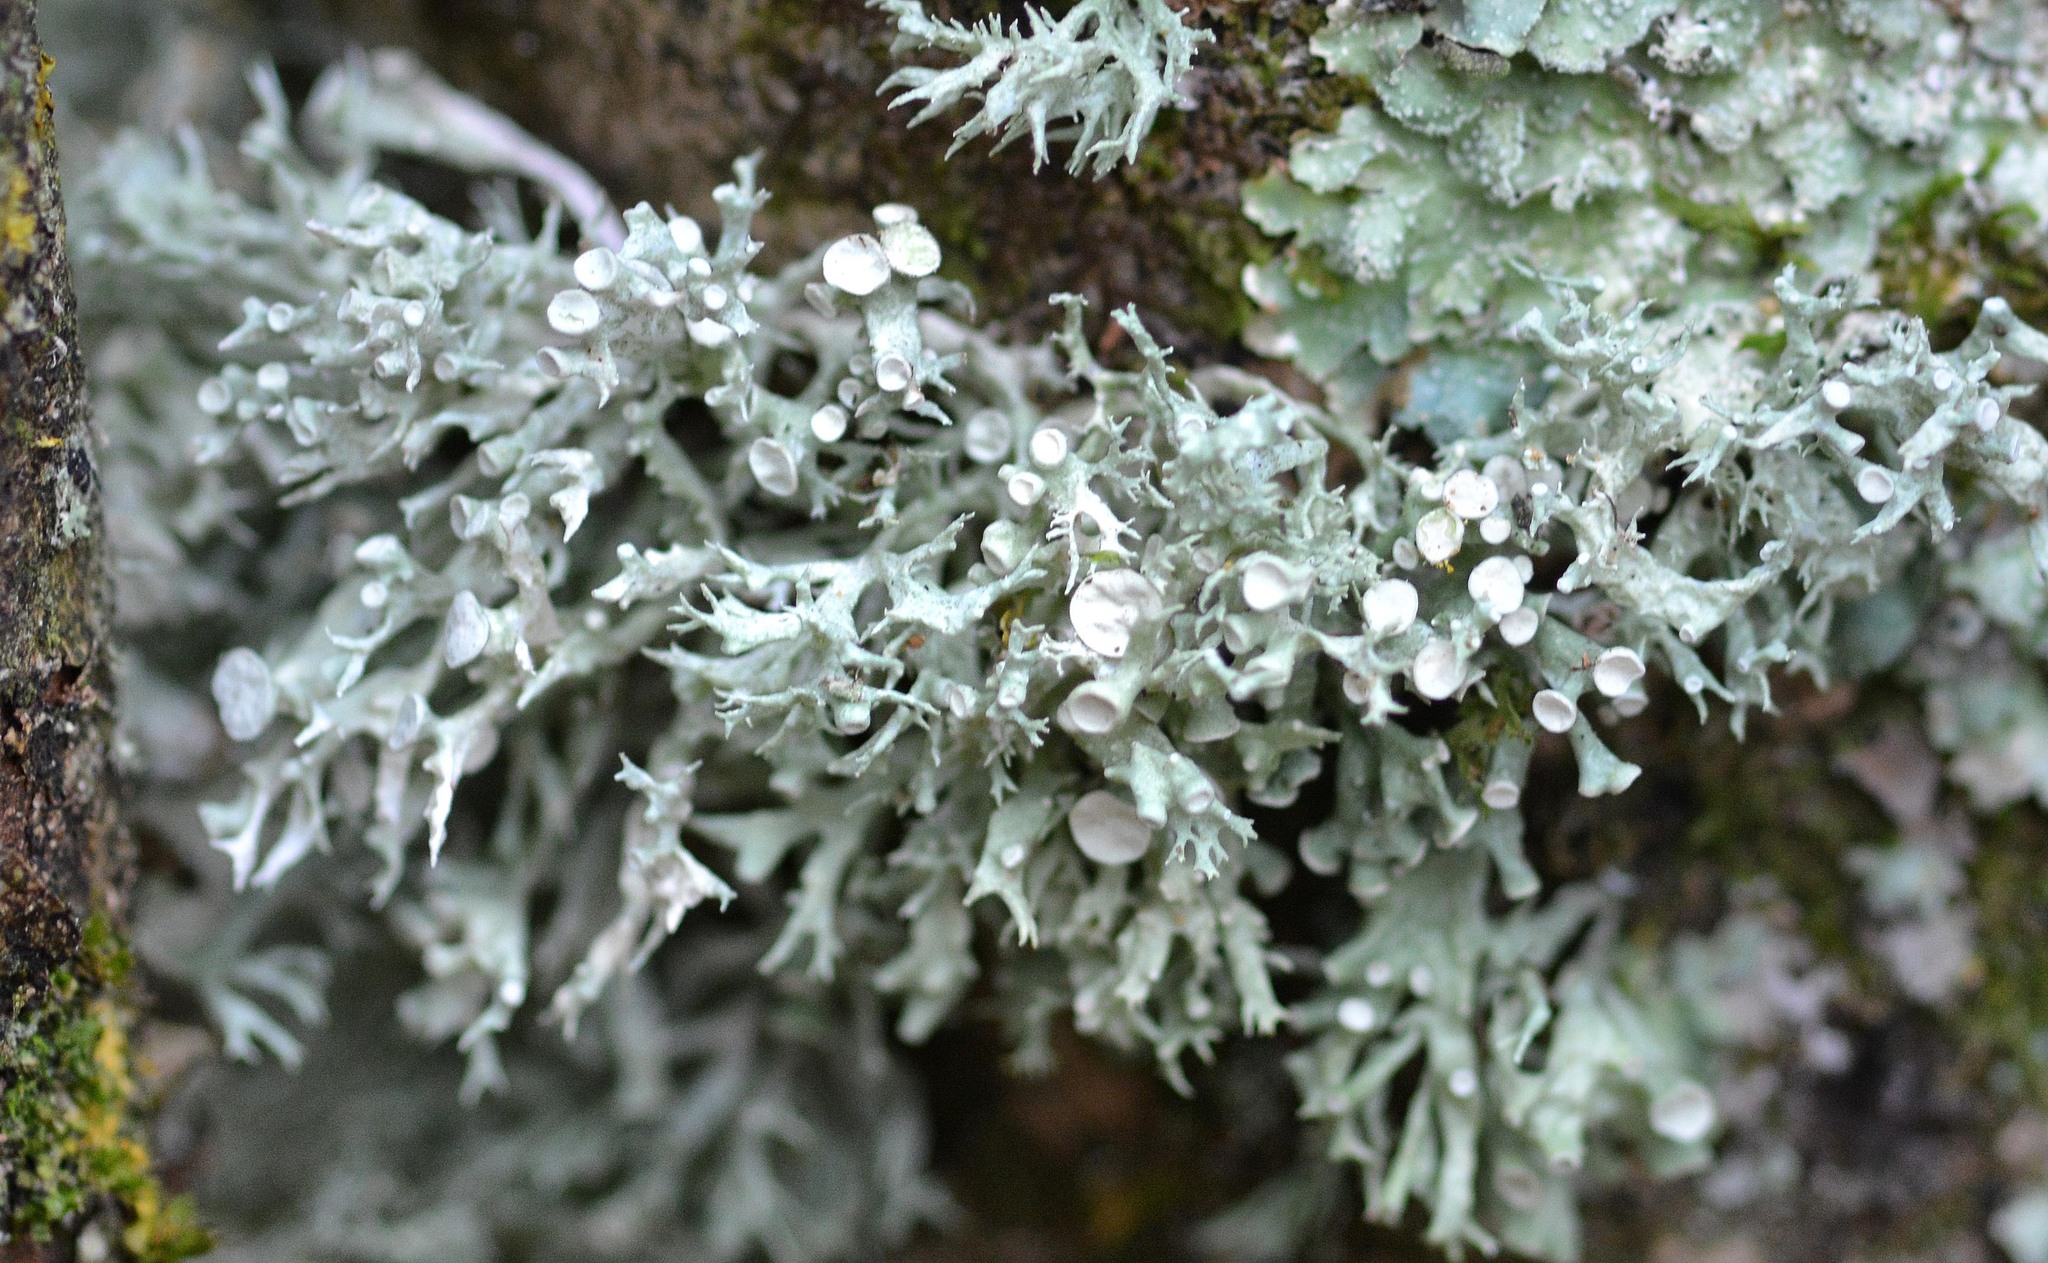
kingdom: Fungi
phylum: Ascomycota
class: Lecanoromycetes
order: Lecanorales
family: Ramalinaceae
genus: Ramalina
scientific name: Ramalina fastigiata
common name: Dotted ribbon lichen
